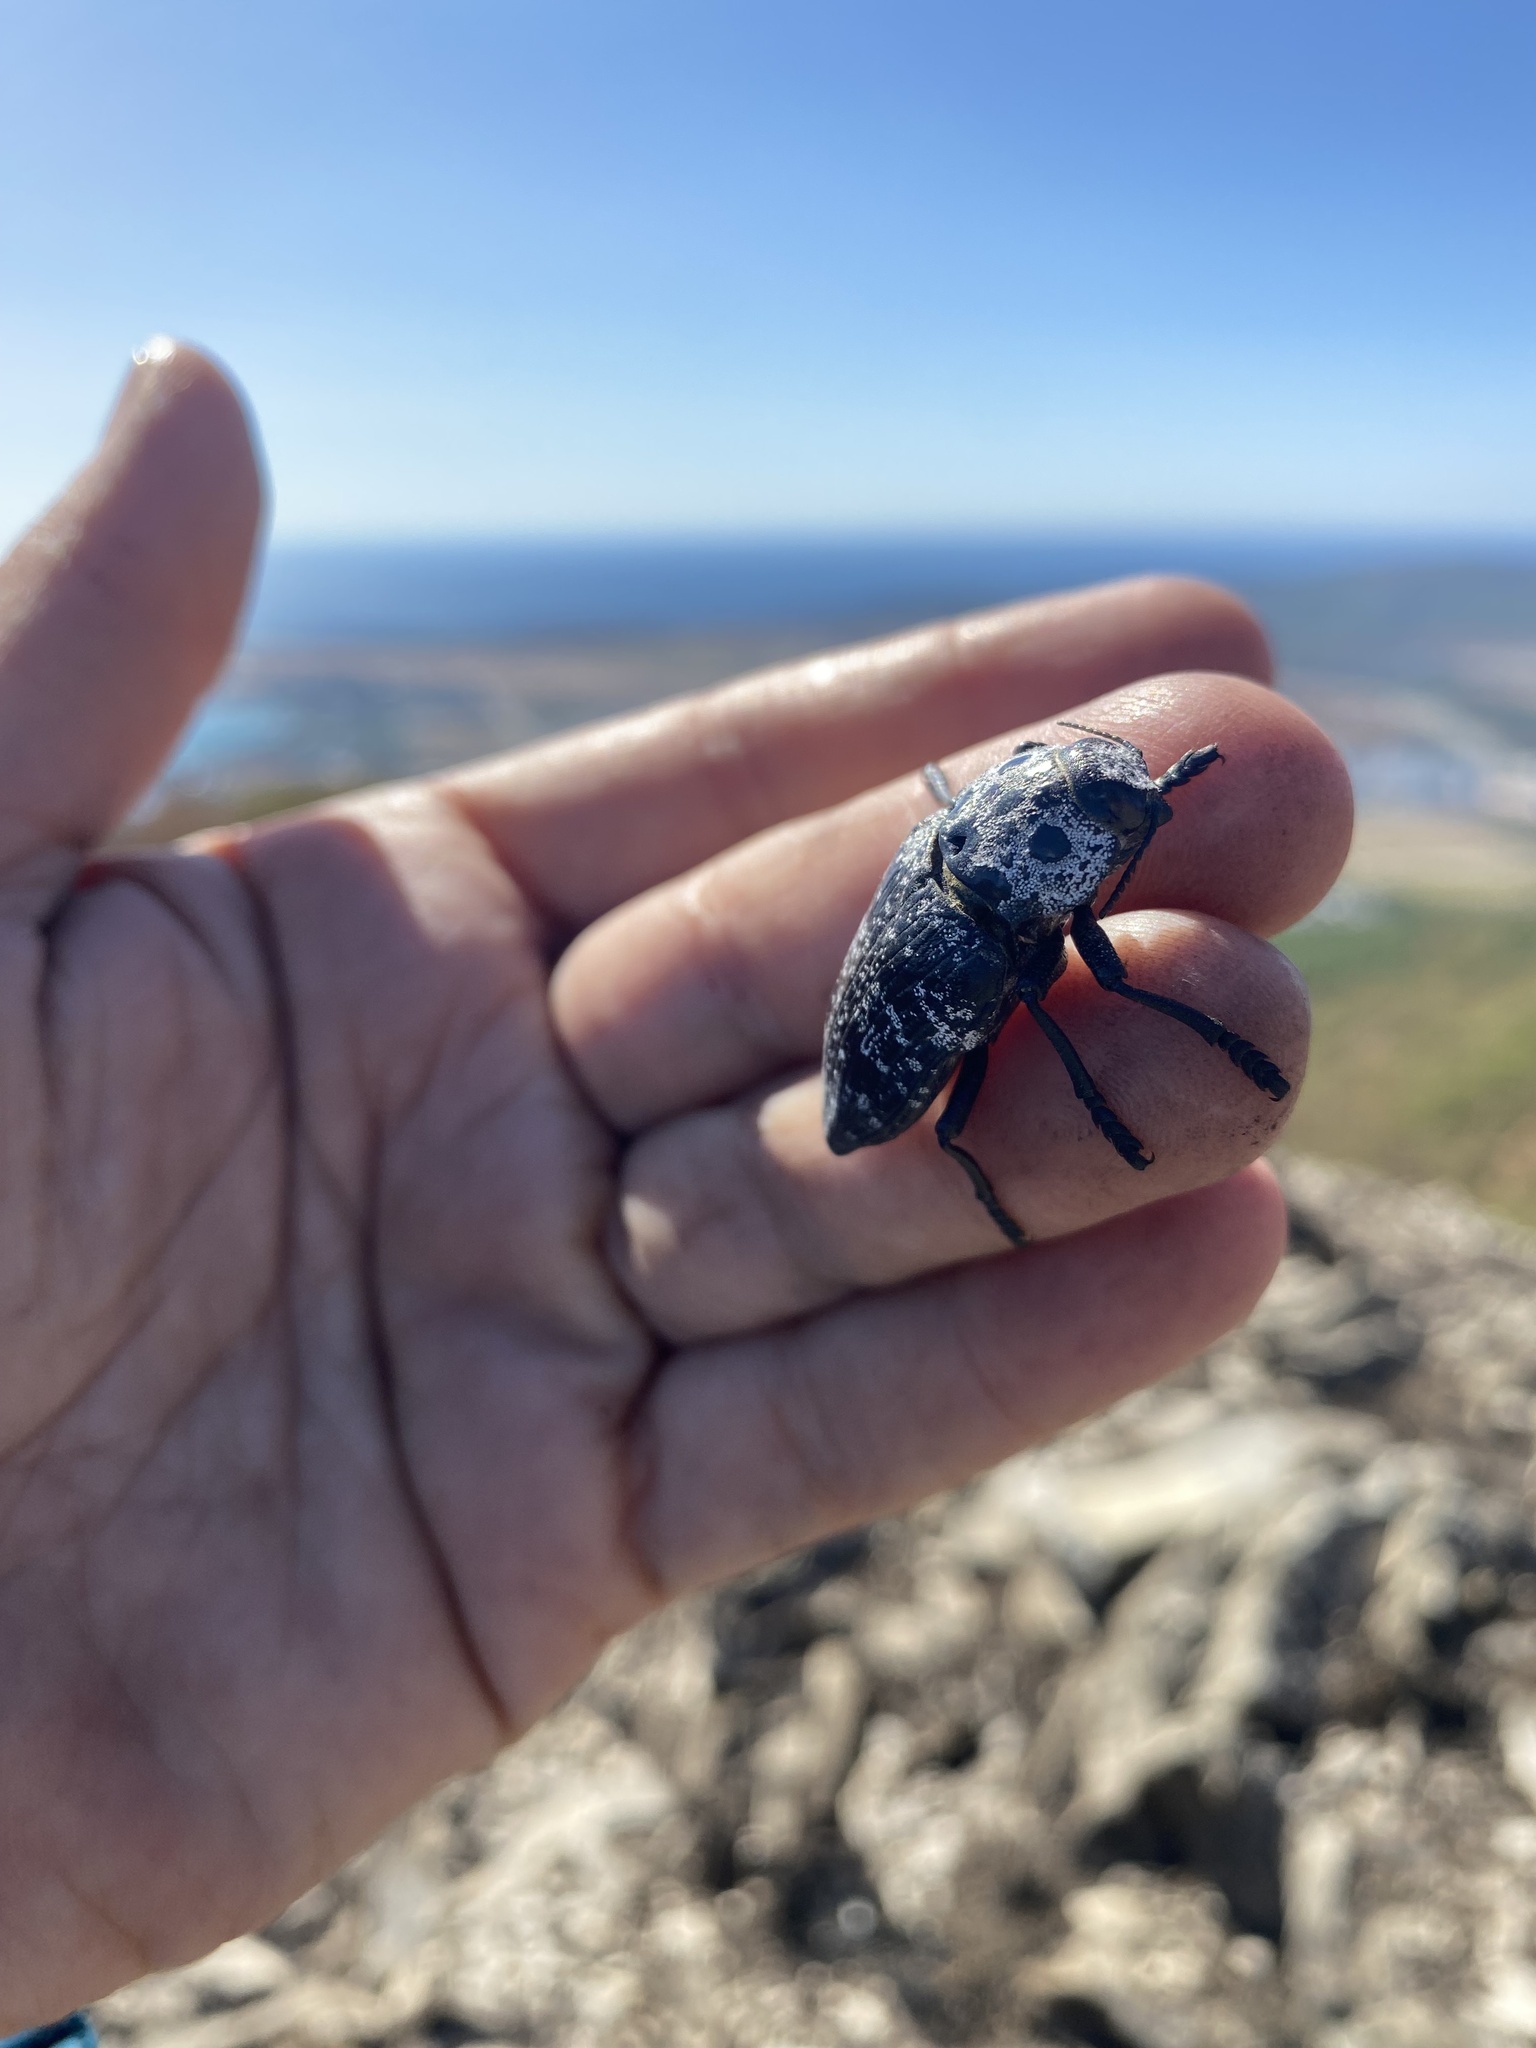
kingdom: Animalia
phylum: Arthropoda
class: Insecta
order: Coleoptera
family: Buprestidae
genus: Capnodis
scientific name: Capnodis cariosa
